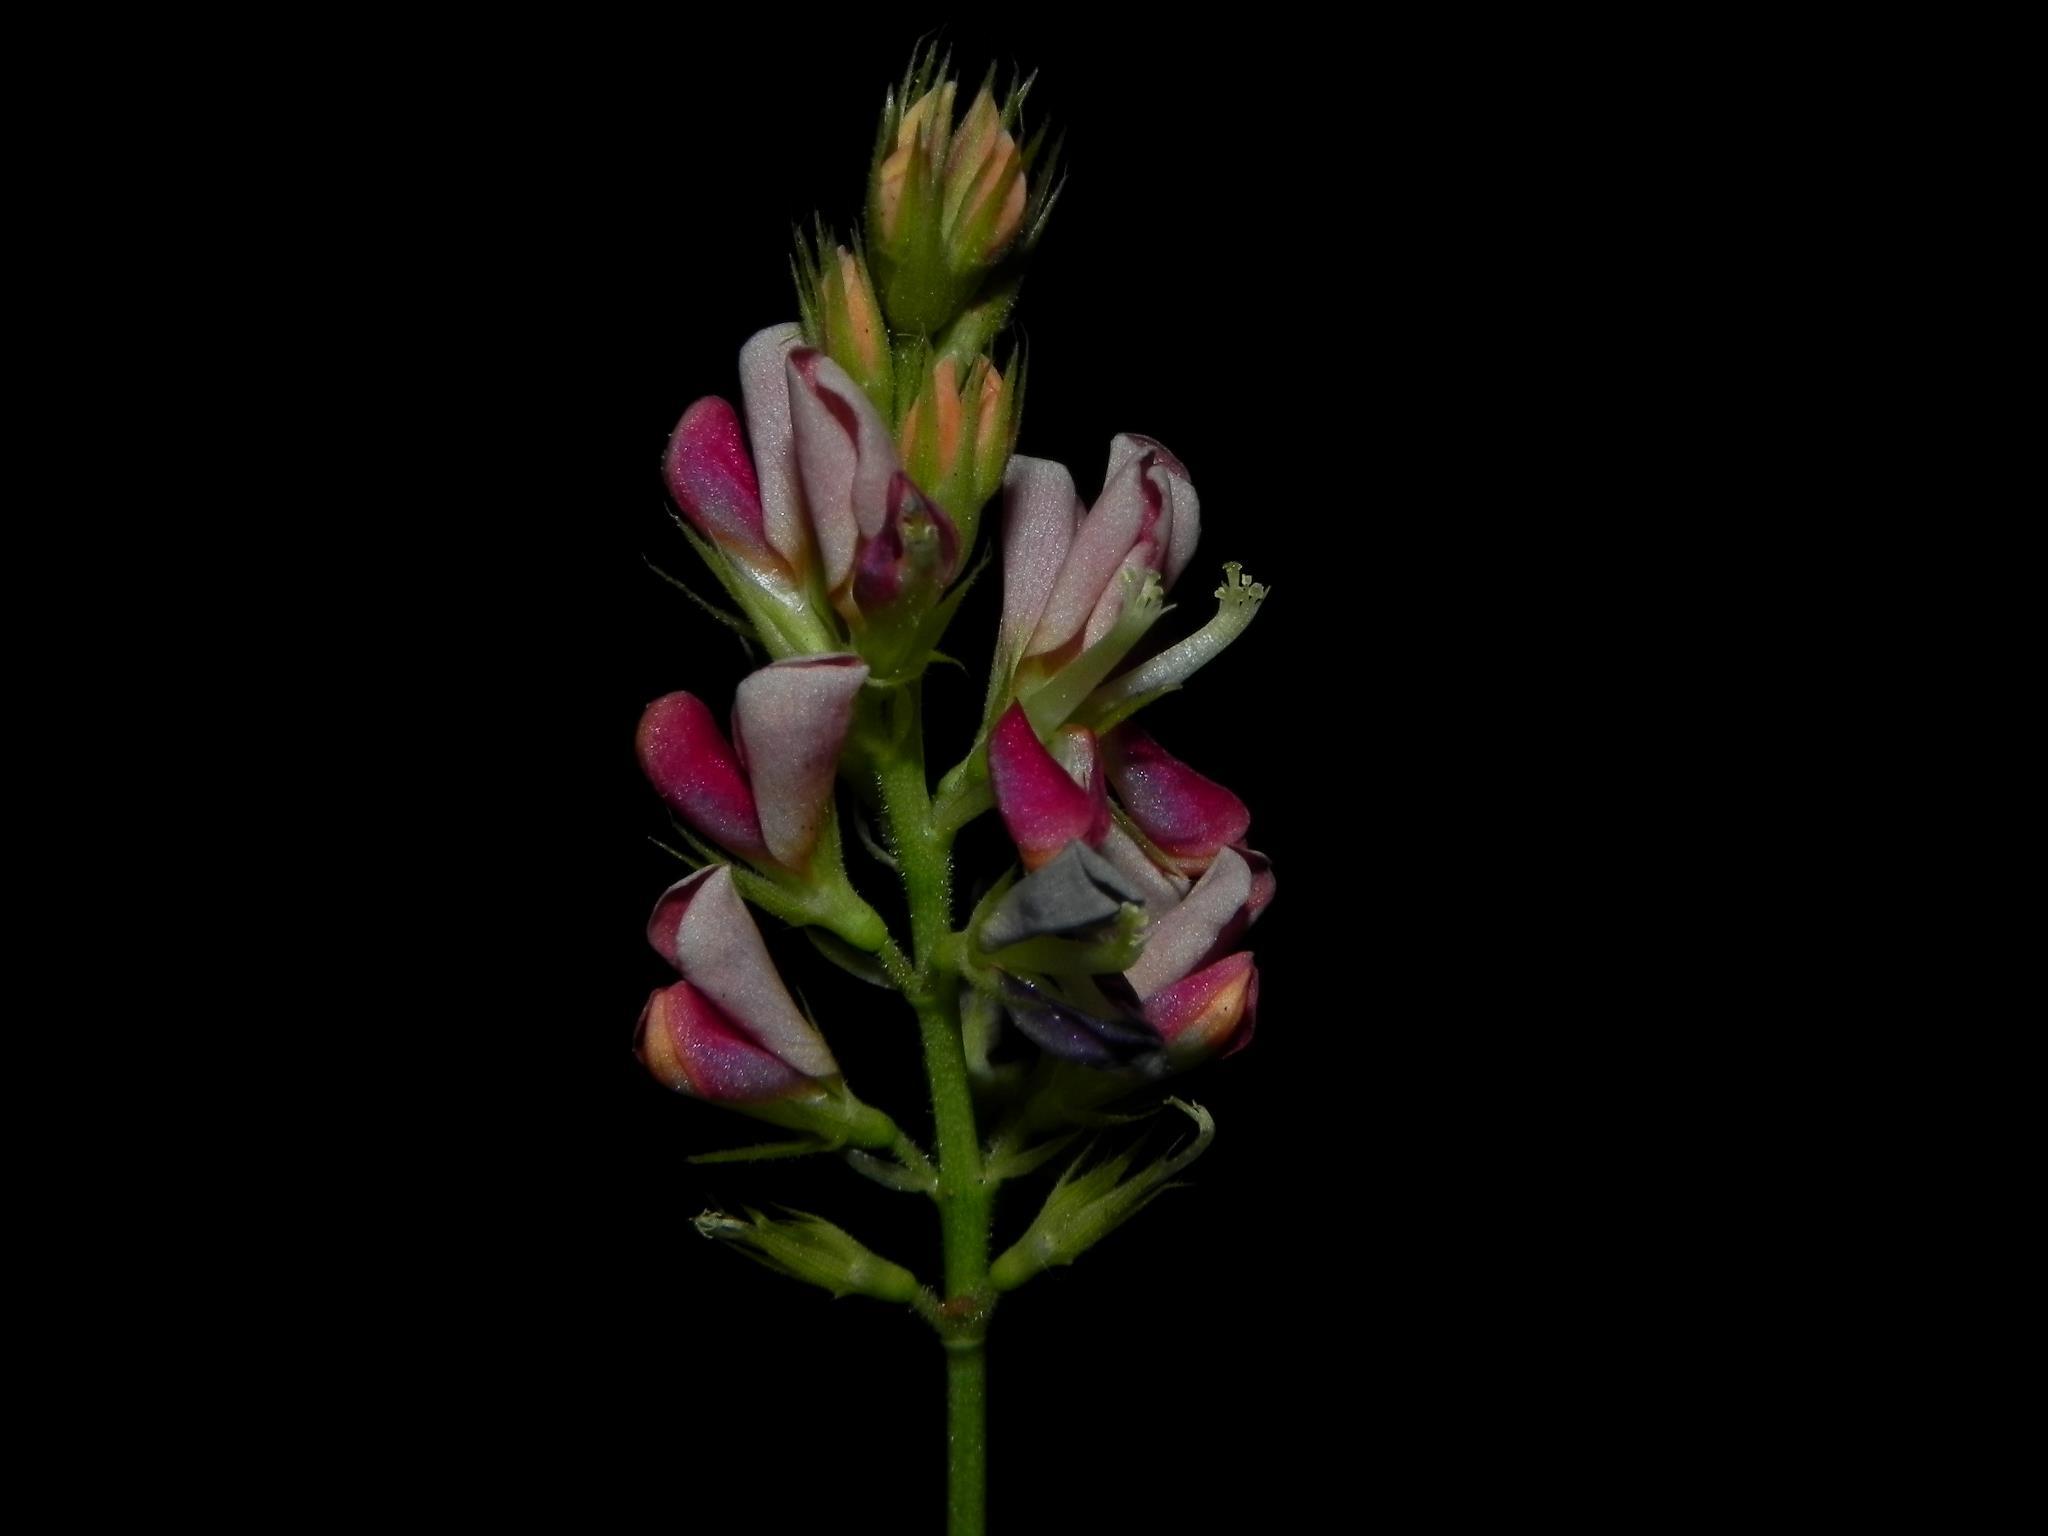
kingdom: Plantae
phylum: Tracheophyta
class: Magnoliopsida
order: Fabales
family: Fabaceae
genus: Alysicarpus
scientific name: Alysicarpus vaginalis
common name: White moneywort
